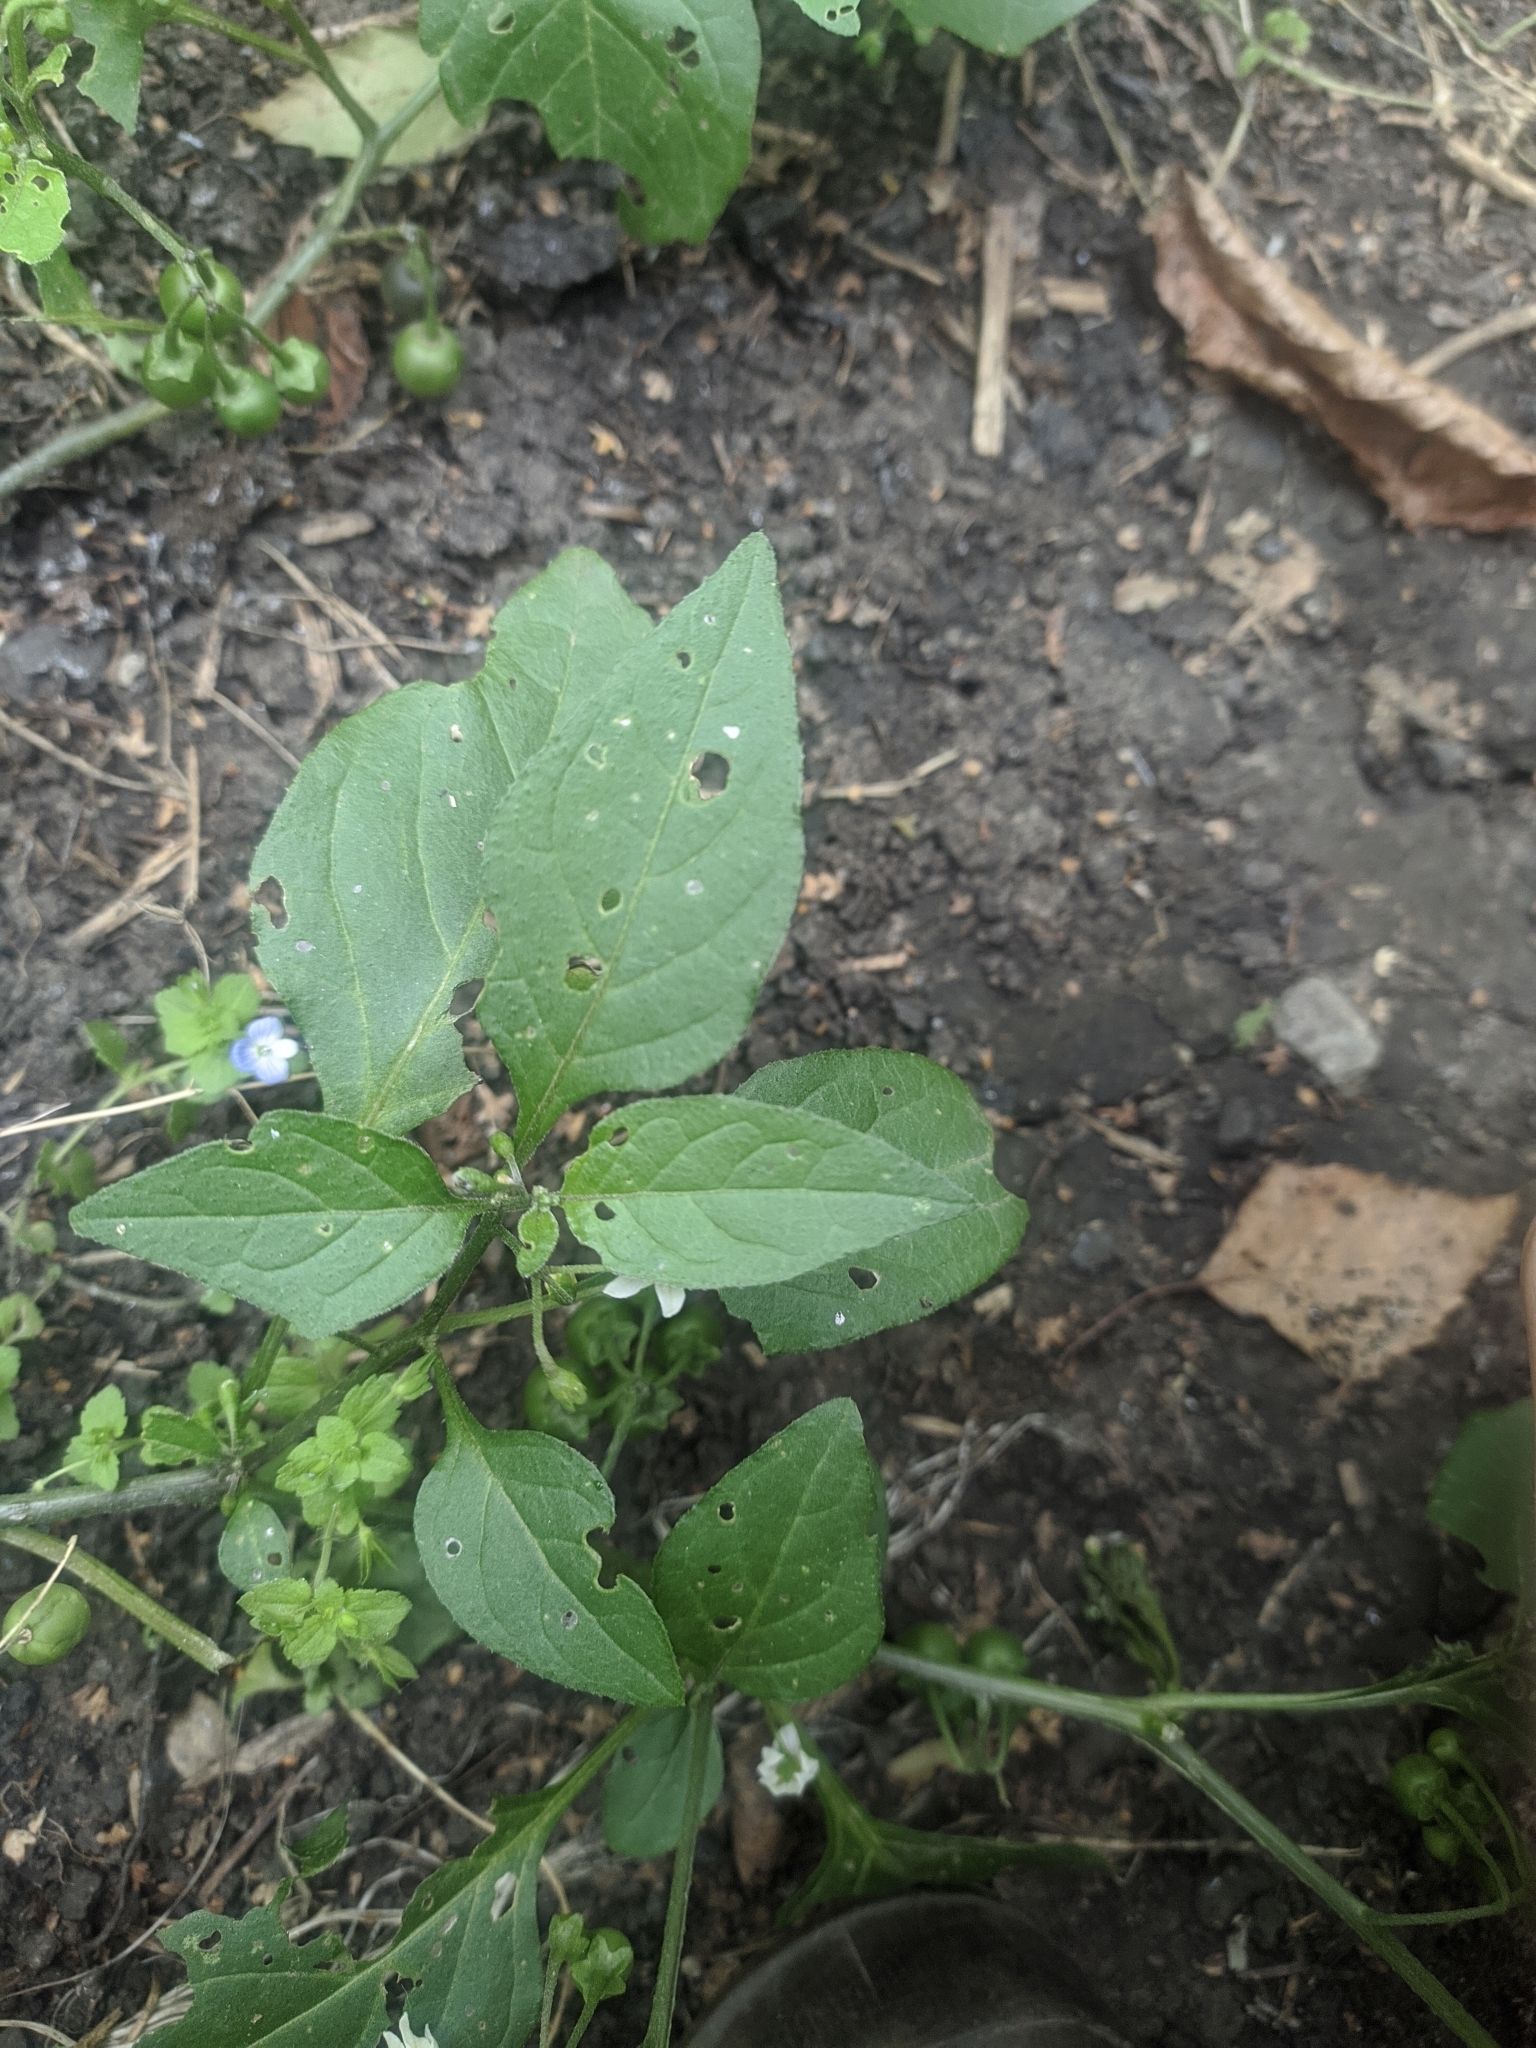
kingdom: Plantae
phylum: Tracheophyta
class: Magnoliopsida
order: Solanales
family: Solanaceae
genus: Solanum
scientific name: Solanum nigrum
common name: Black nightshade
